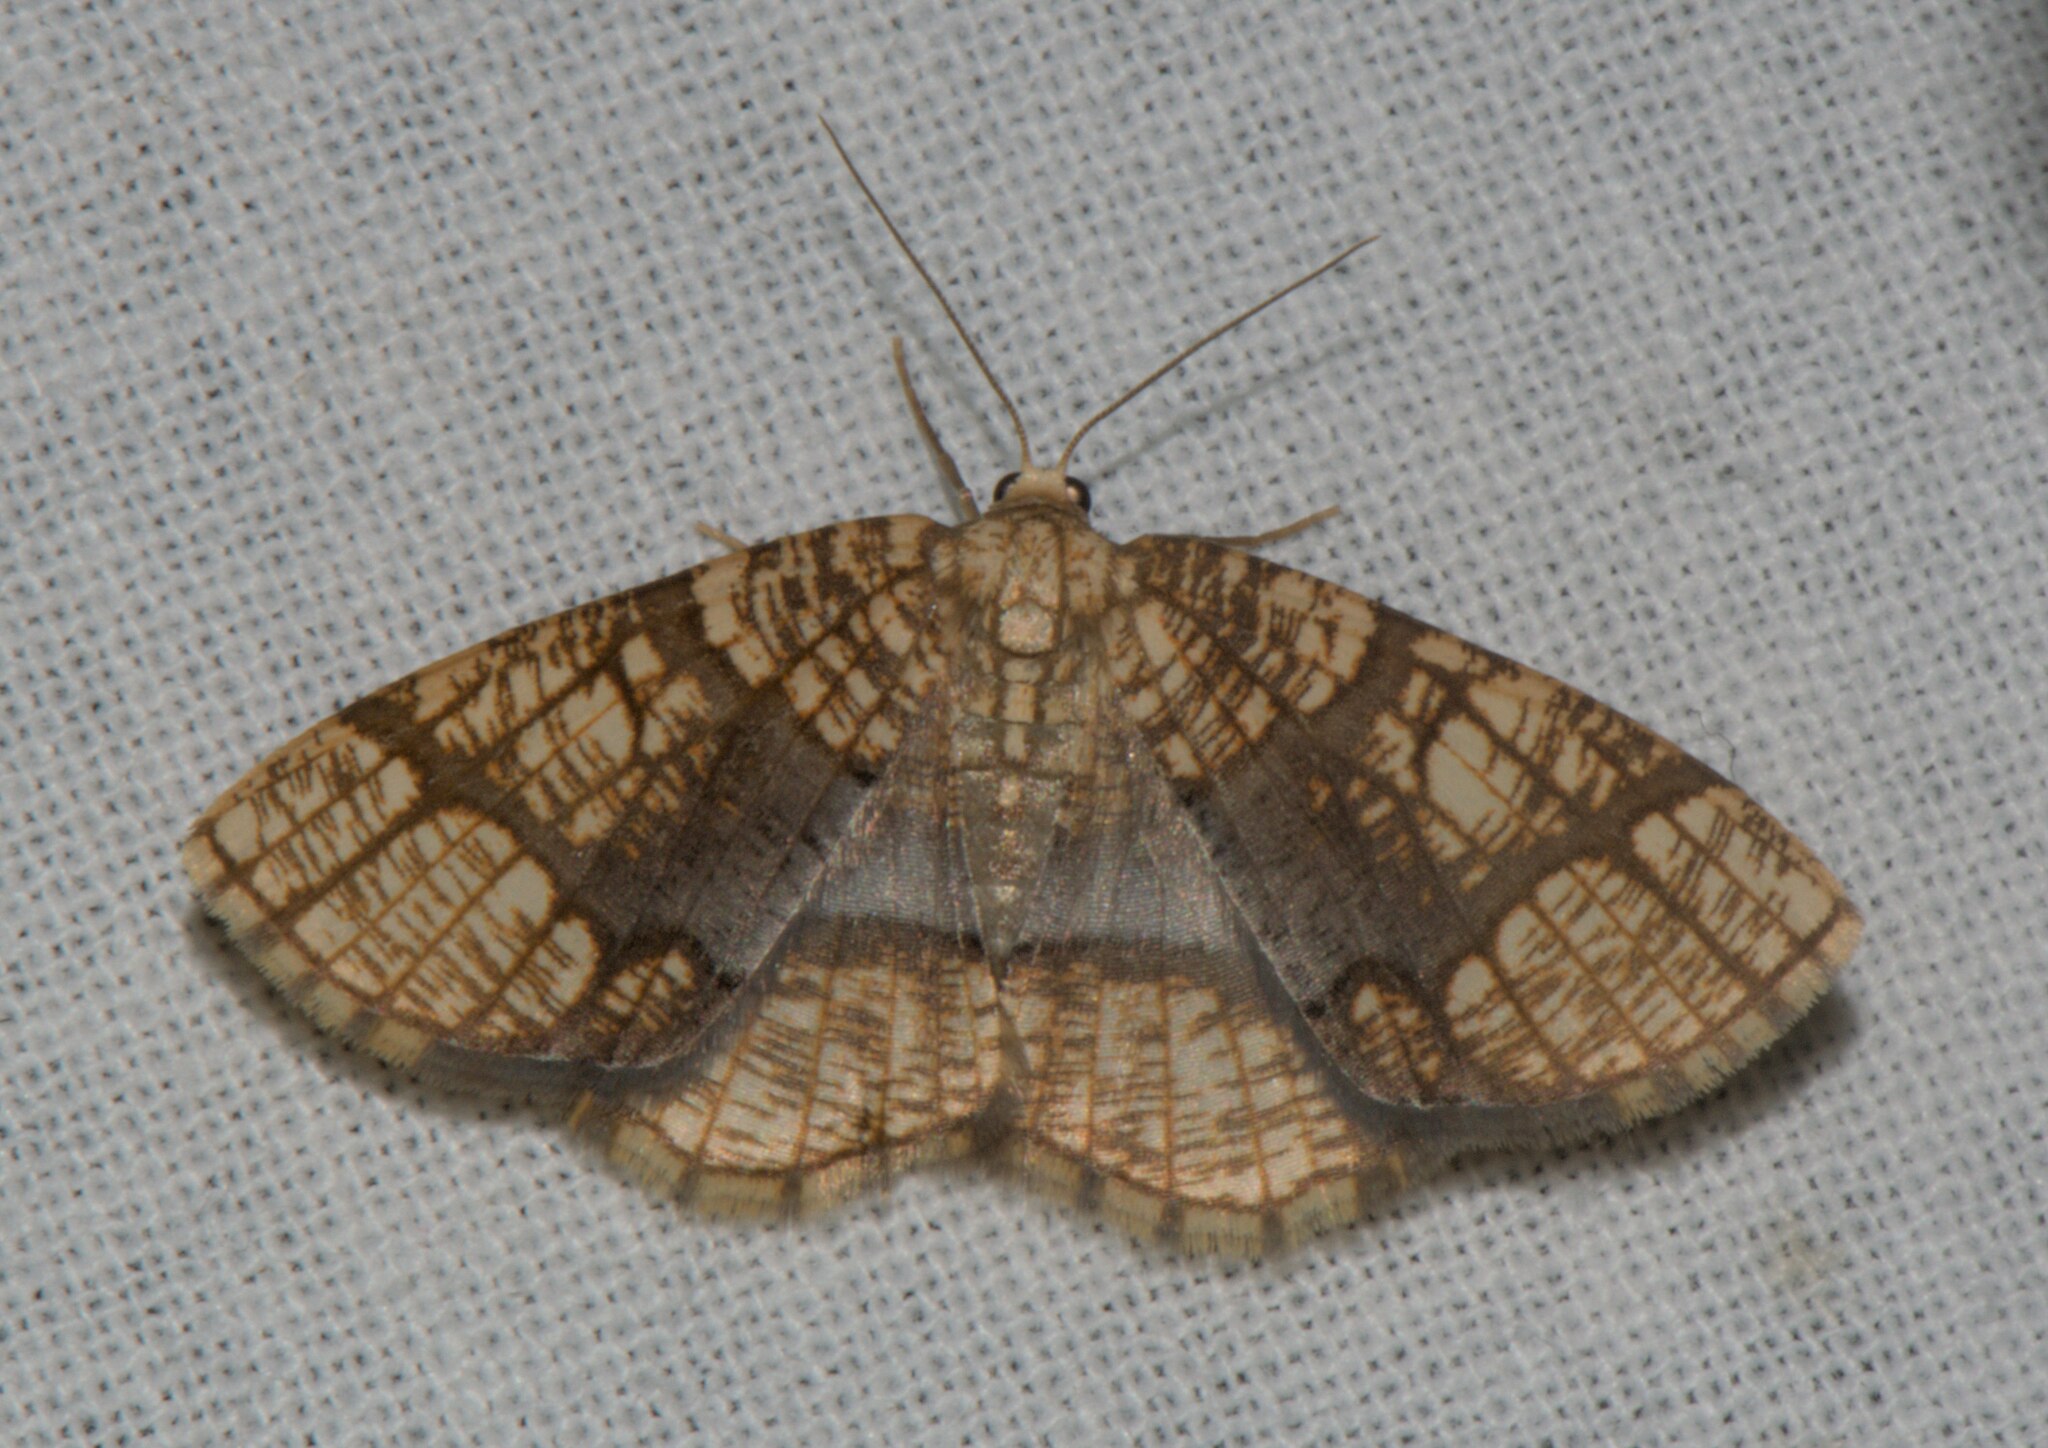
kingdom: Animalia
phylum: Arthropoda
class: Insecta
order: Lepidoptera
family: Geometridae
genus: Orthobrachia
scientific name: Orthobrachia latifasciata
